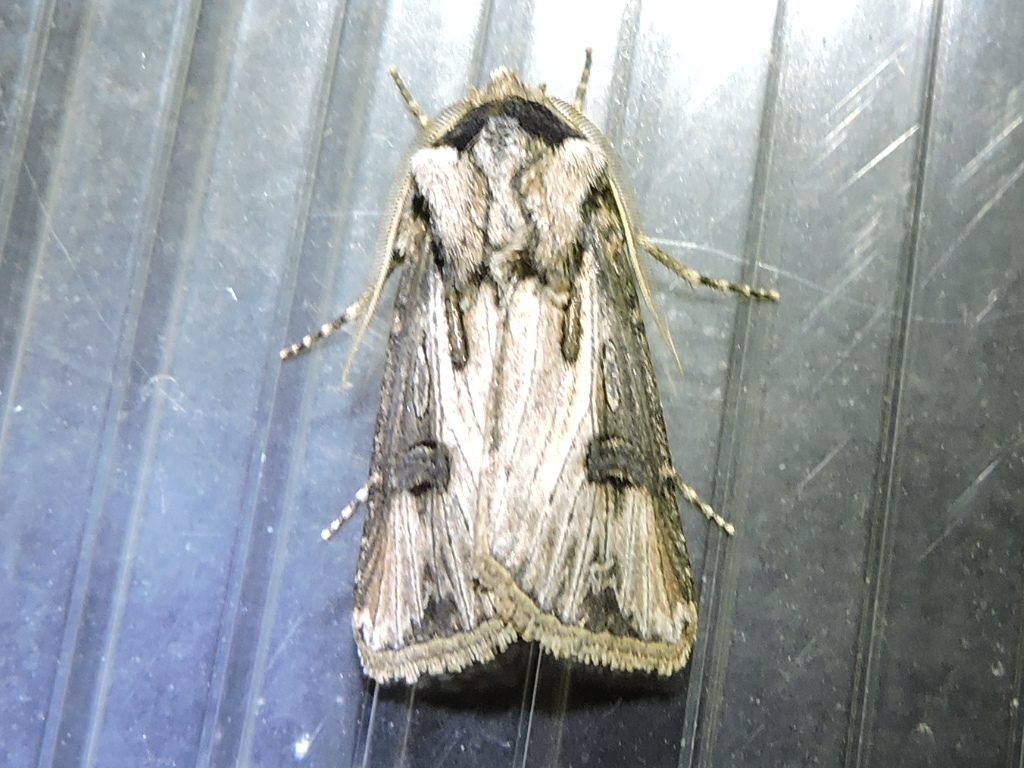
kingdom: Animalia
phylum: Arthropoda
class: Insecta
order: Lepidoptera
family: Noctuidae
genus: Agrotis
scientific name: Agrotis venerabilis
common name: Venerable dart
